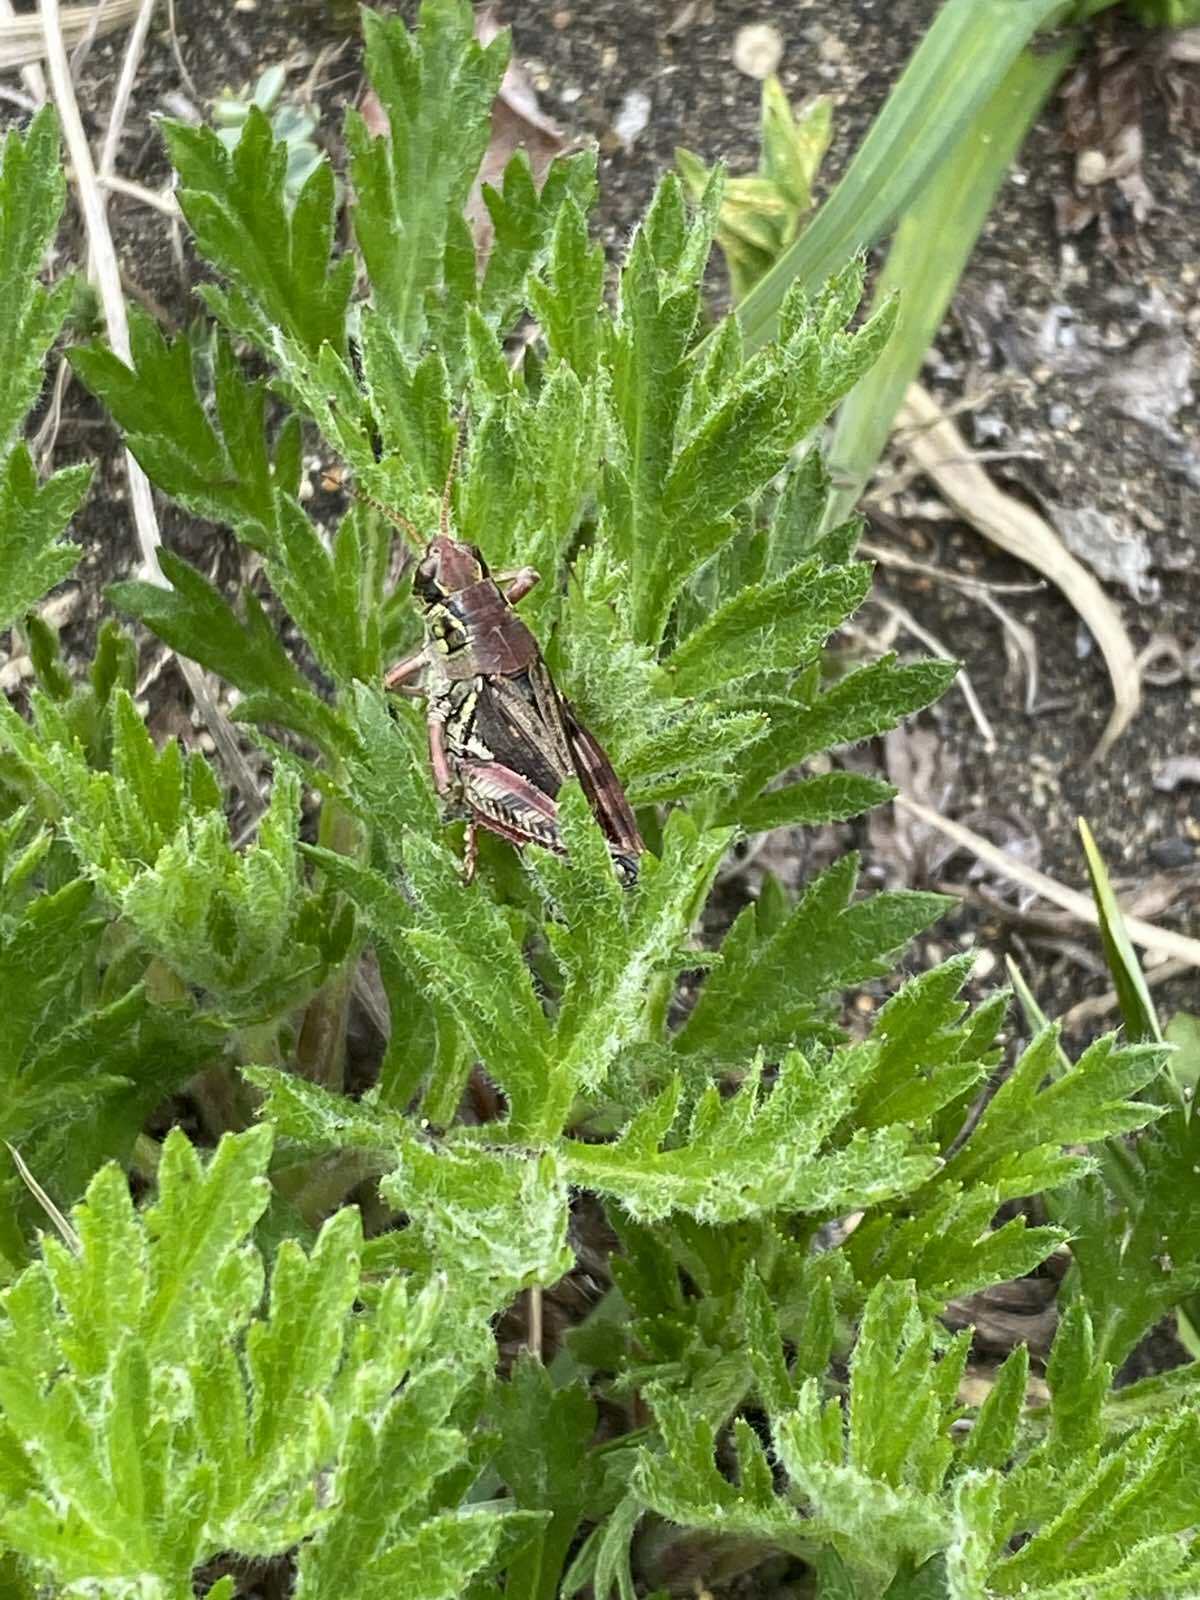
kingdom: Animalia
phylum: Arthropoda
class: Insecta
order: Orthoptera
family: Acrididae
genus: Bohemanella
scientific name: Bohemanella frigida
